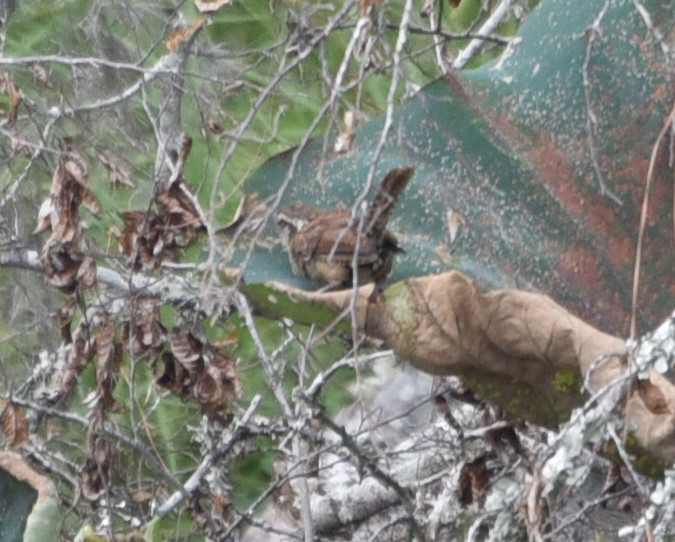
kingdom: Animalia
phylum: Chordata
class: Aves
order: Passeriformes
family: Troglodytidae
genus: Thryothorus
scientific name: Thryothorus ludovicianus
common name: Carolina wren
